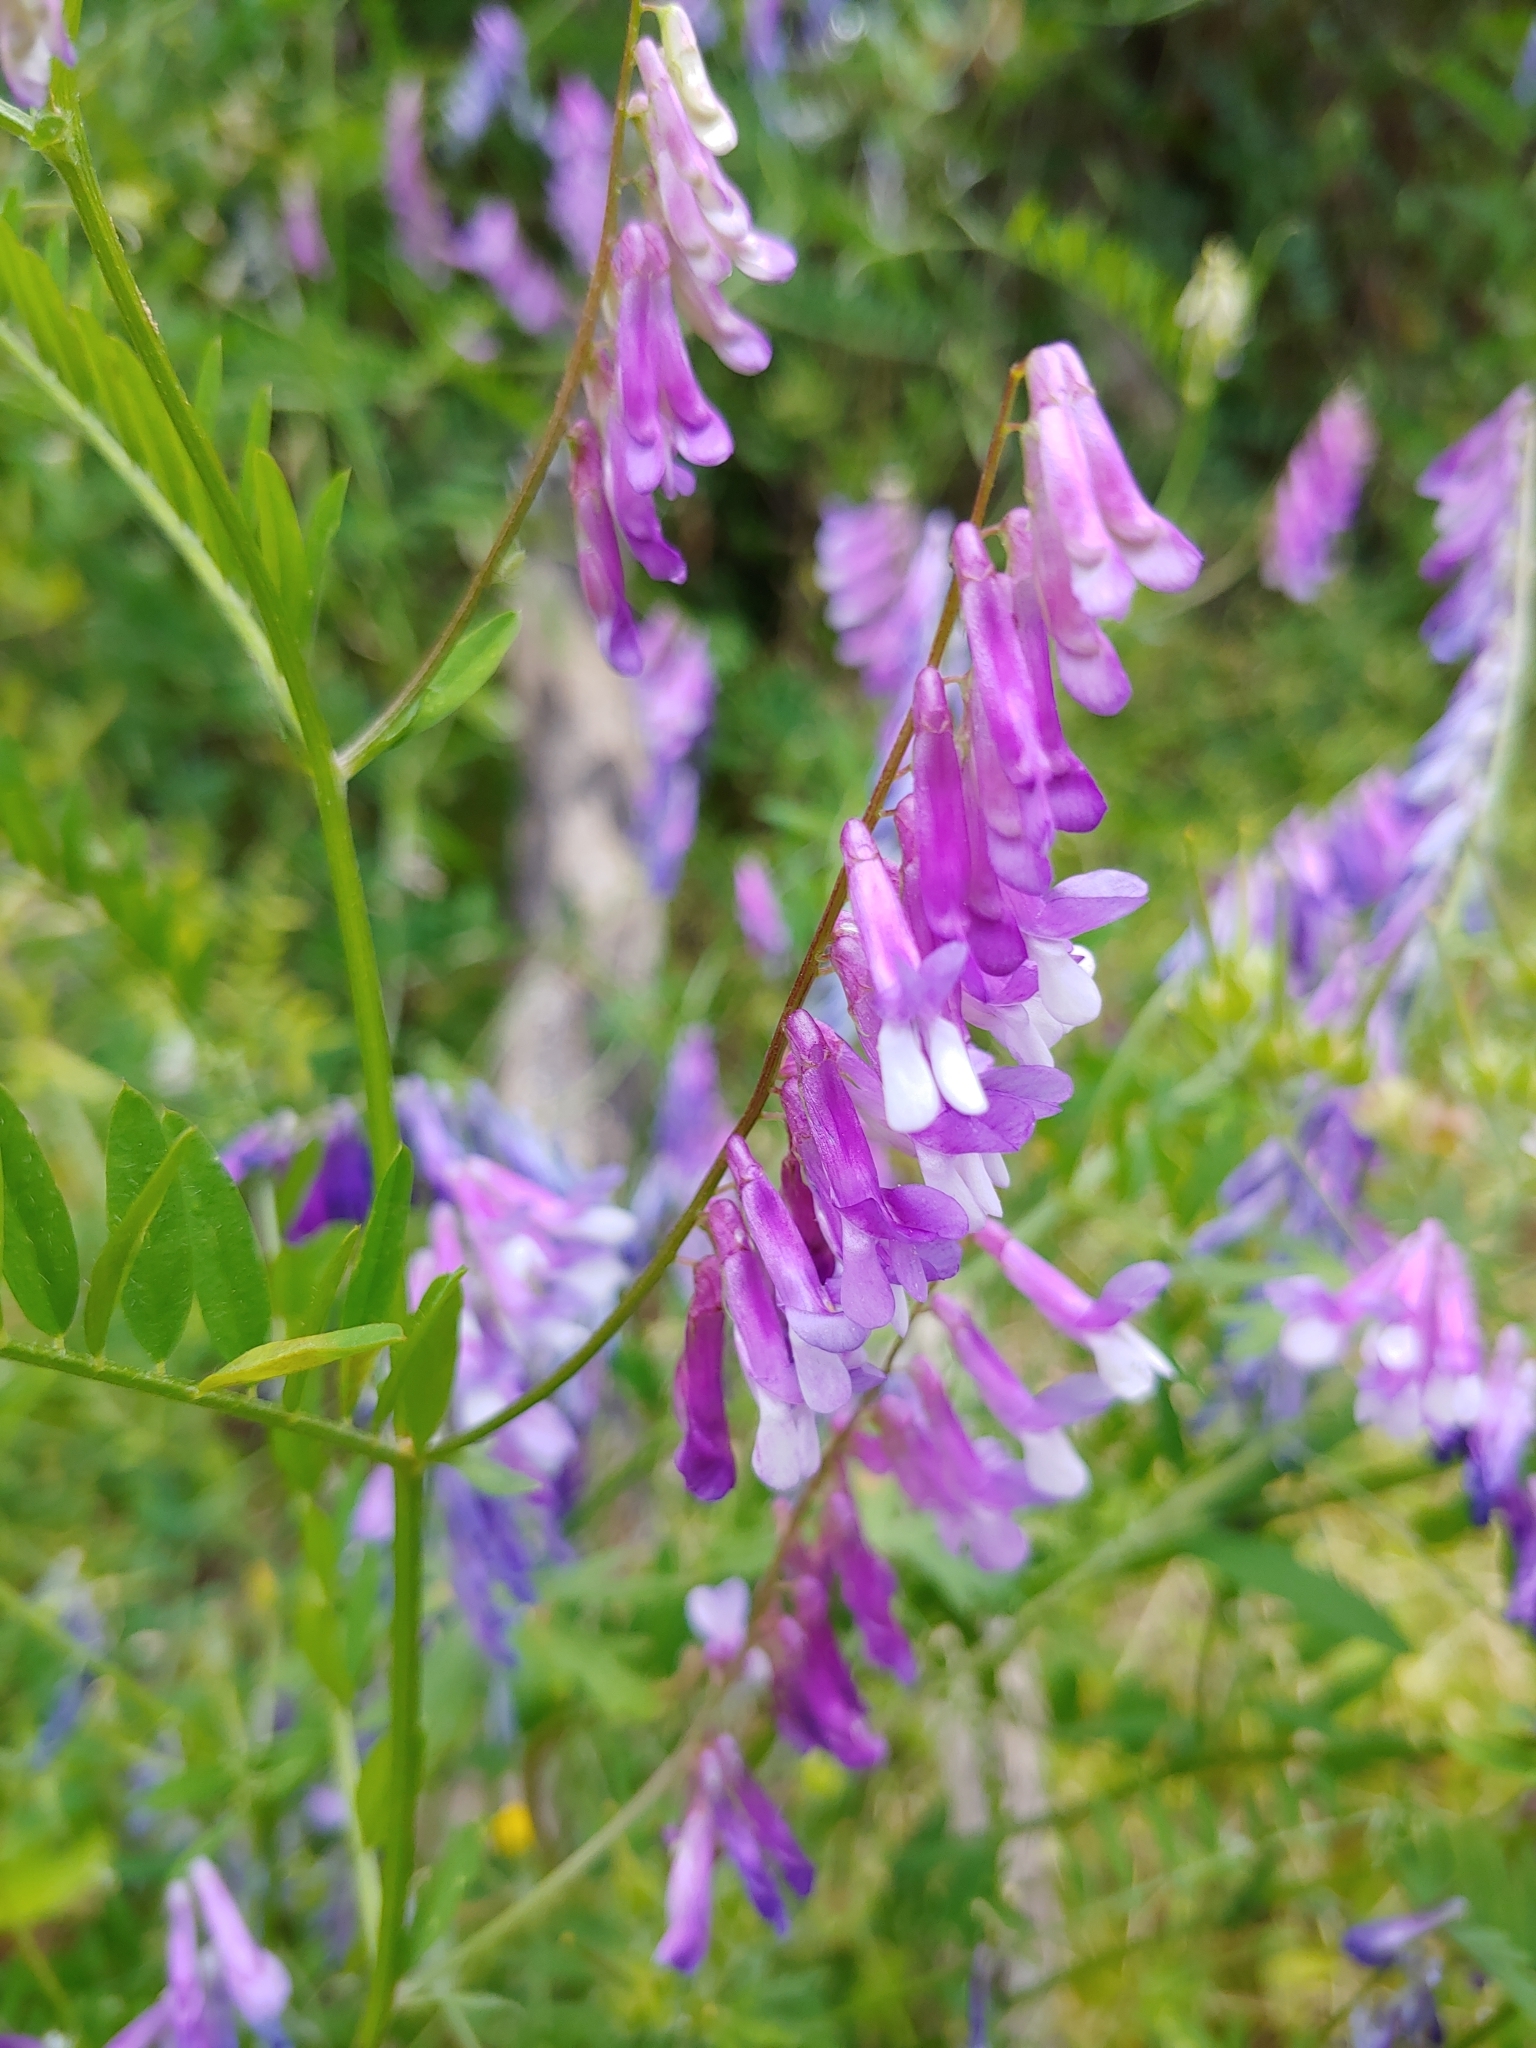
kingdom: Plantae
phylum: Tracheophyta
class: Magnoliopsida
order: Fabales
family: Fabaceae
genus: Vicia
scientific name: Vicia villosa
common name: Fodder vetch
